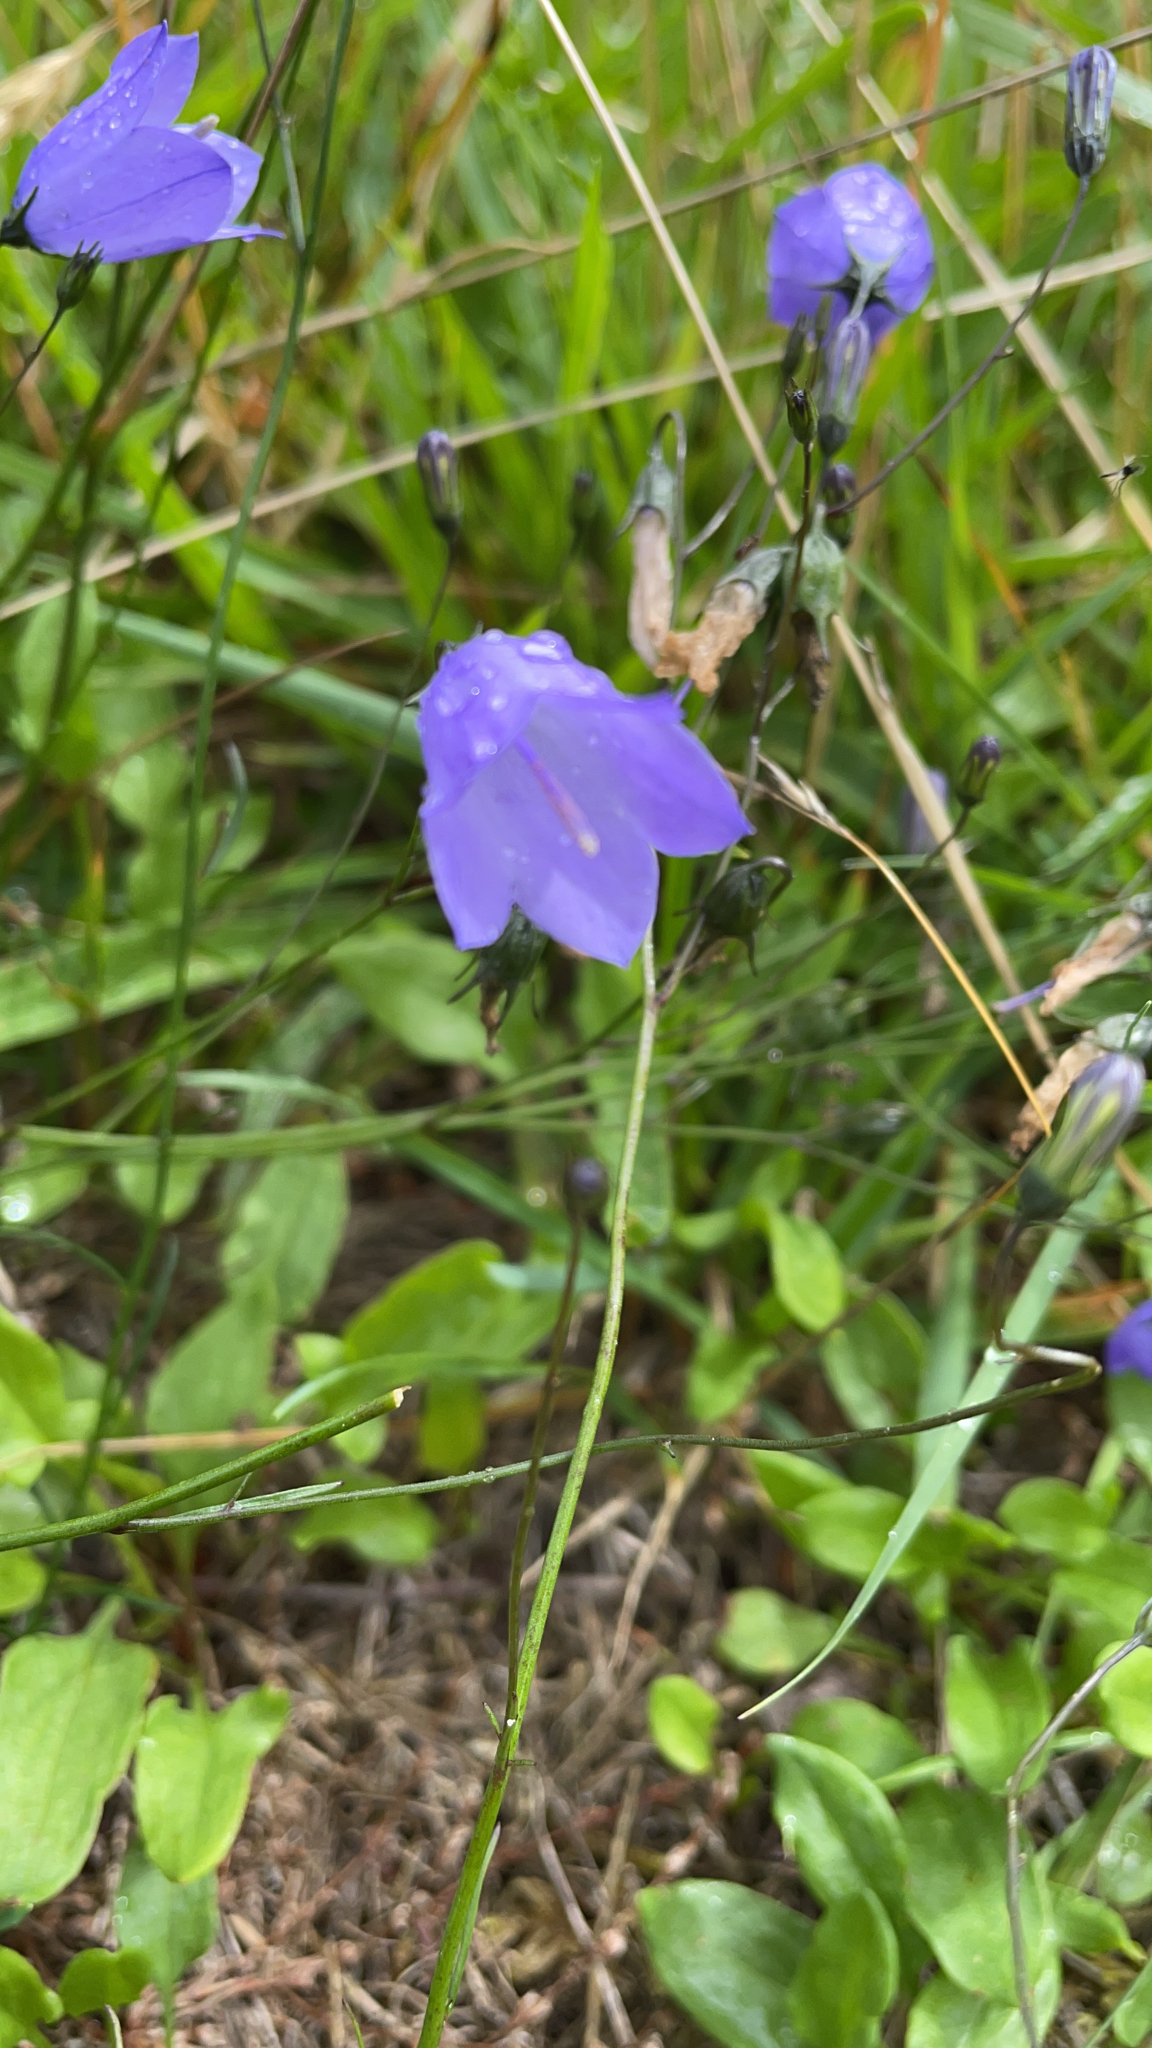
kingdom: Plantae
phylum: Tracheophyta
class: Magnoliopsida
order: Asterales
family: Campanulaceae
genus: Campanula
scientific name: Campanula rotundifolia
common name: Harebell
